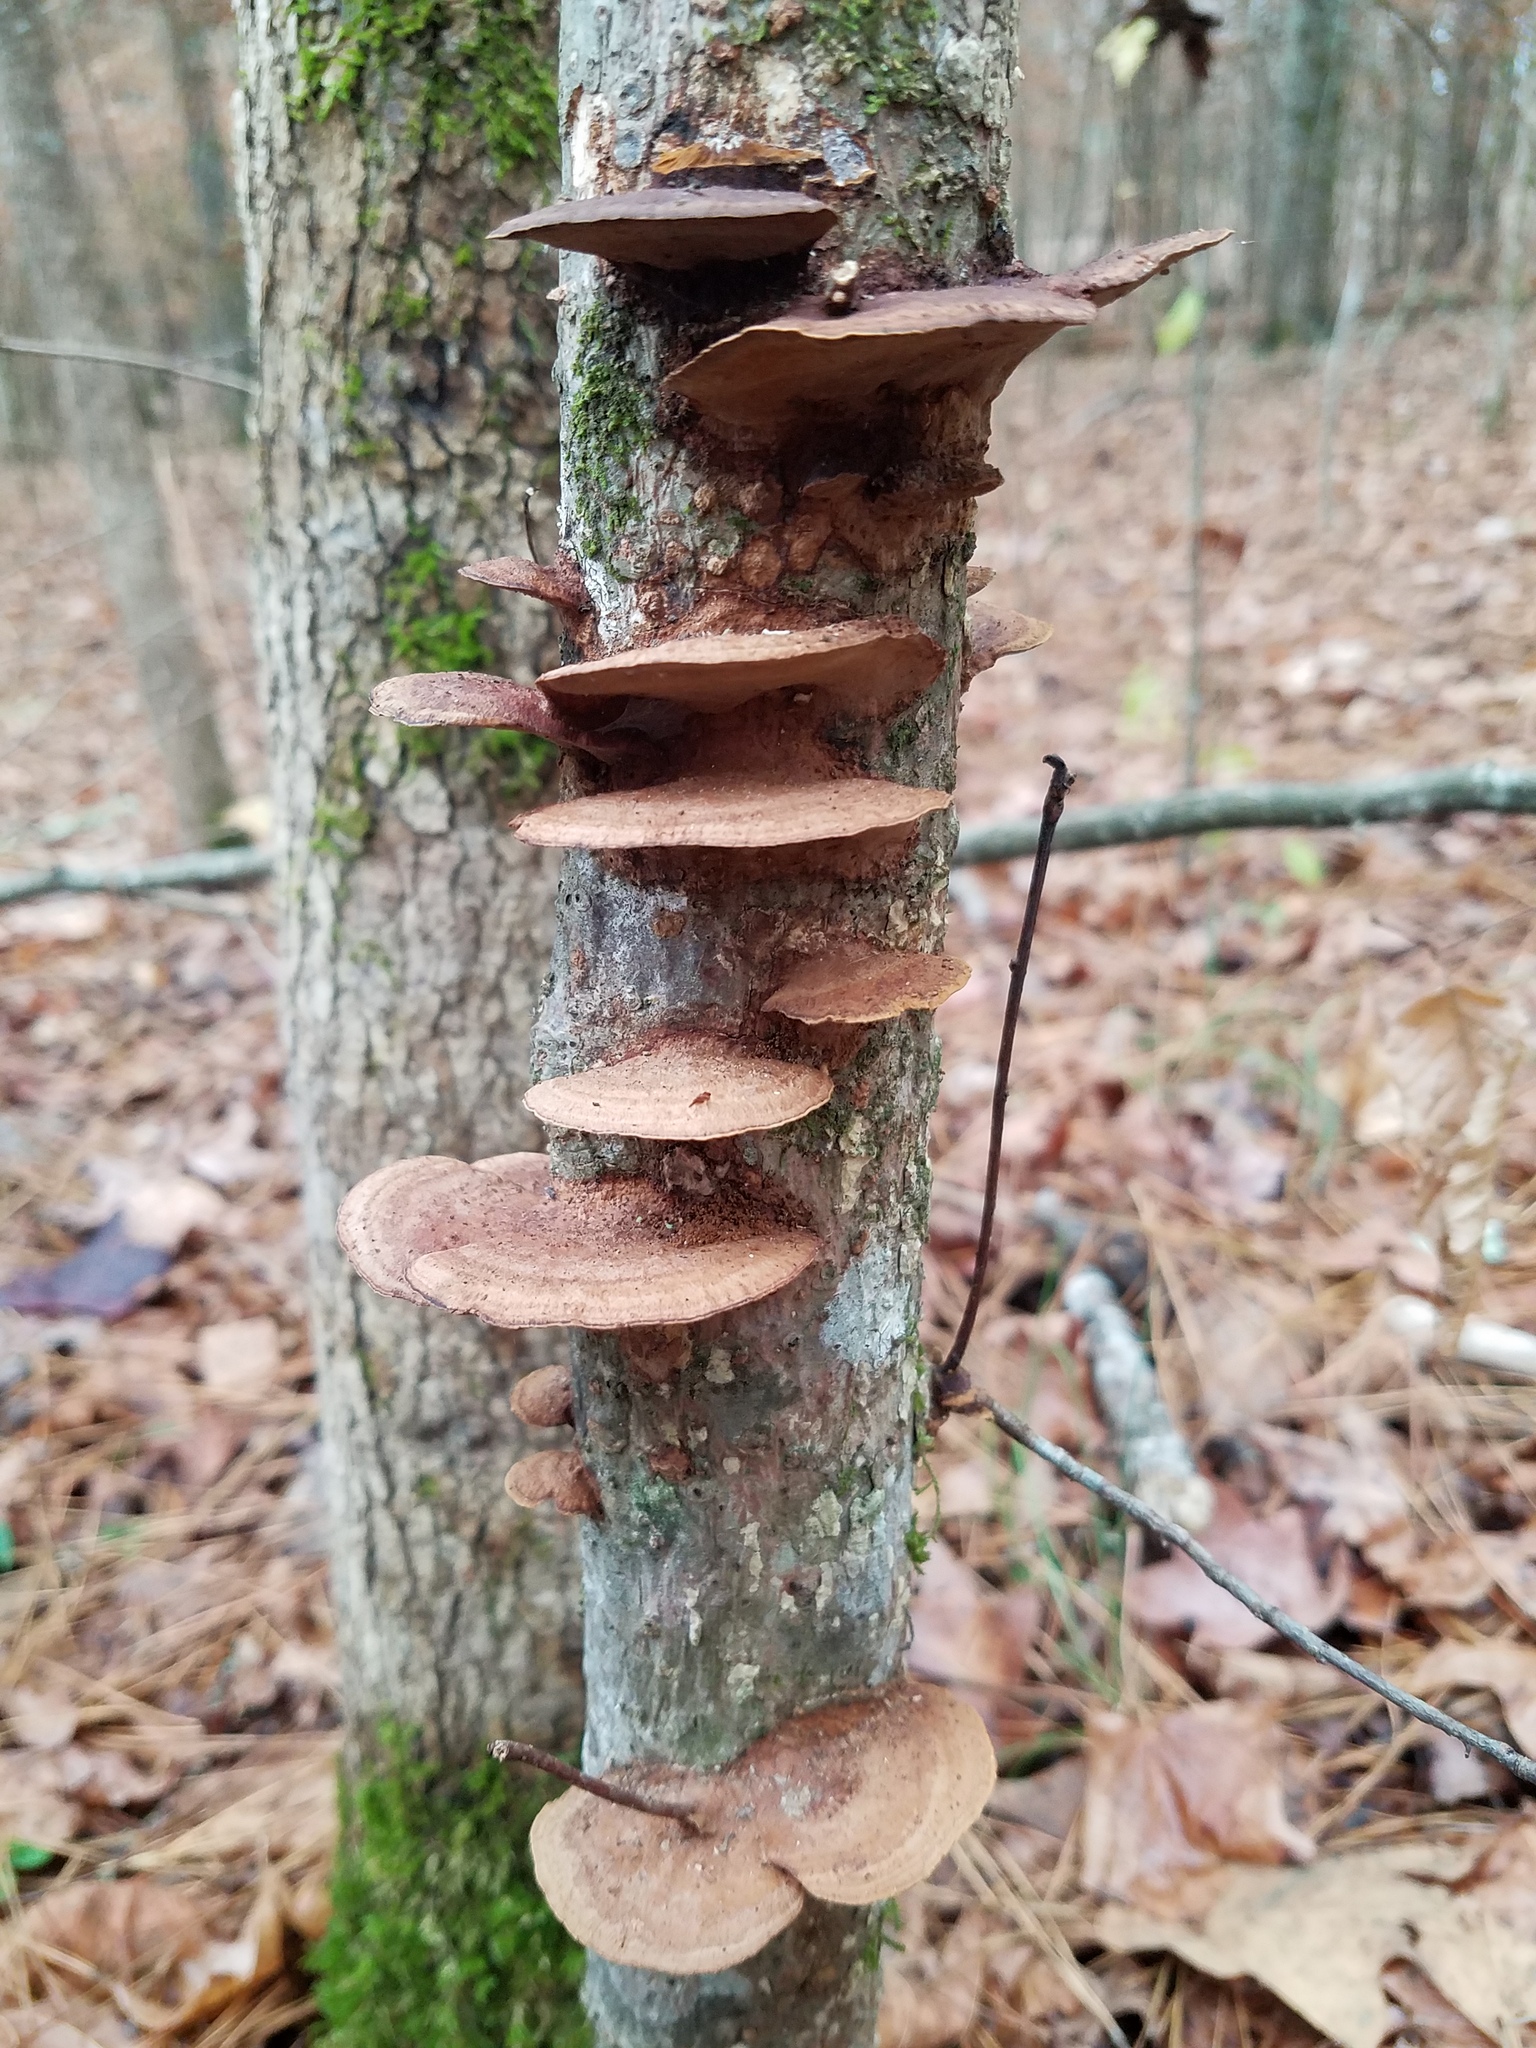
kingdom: Fungi
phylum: Basidiomycota
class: Agaricomycetes
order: Hymenochaetales
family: Hymenochaetaceae
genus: Phellinus
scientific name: Phellinus gilvus
